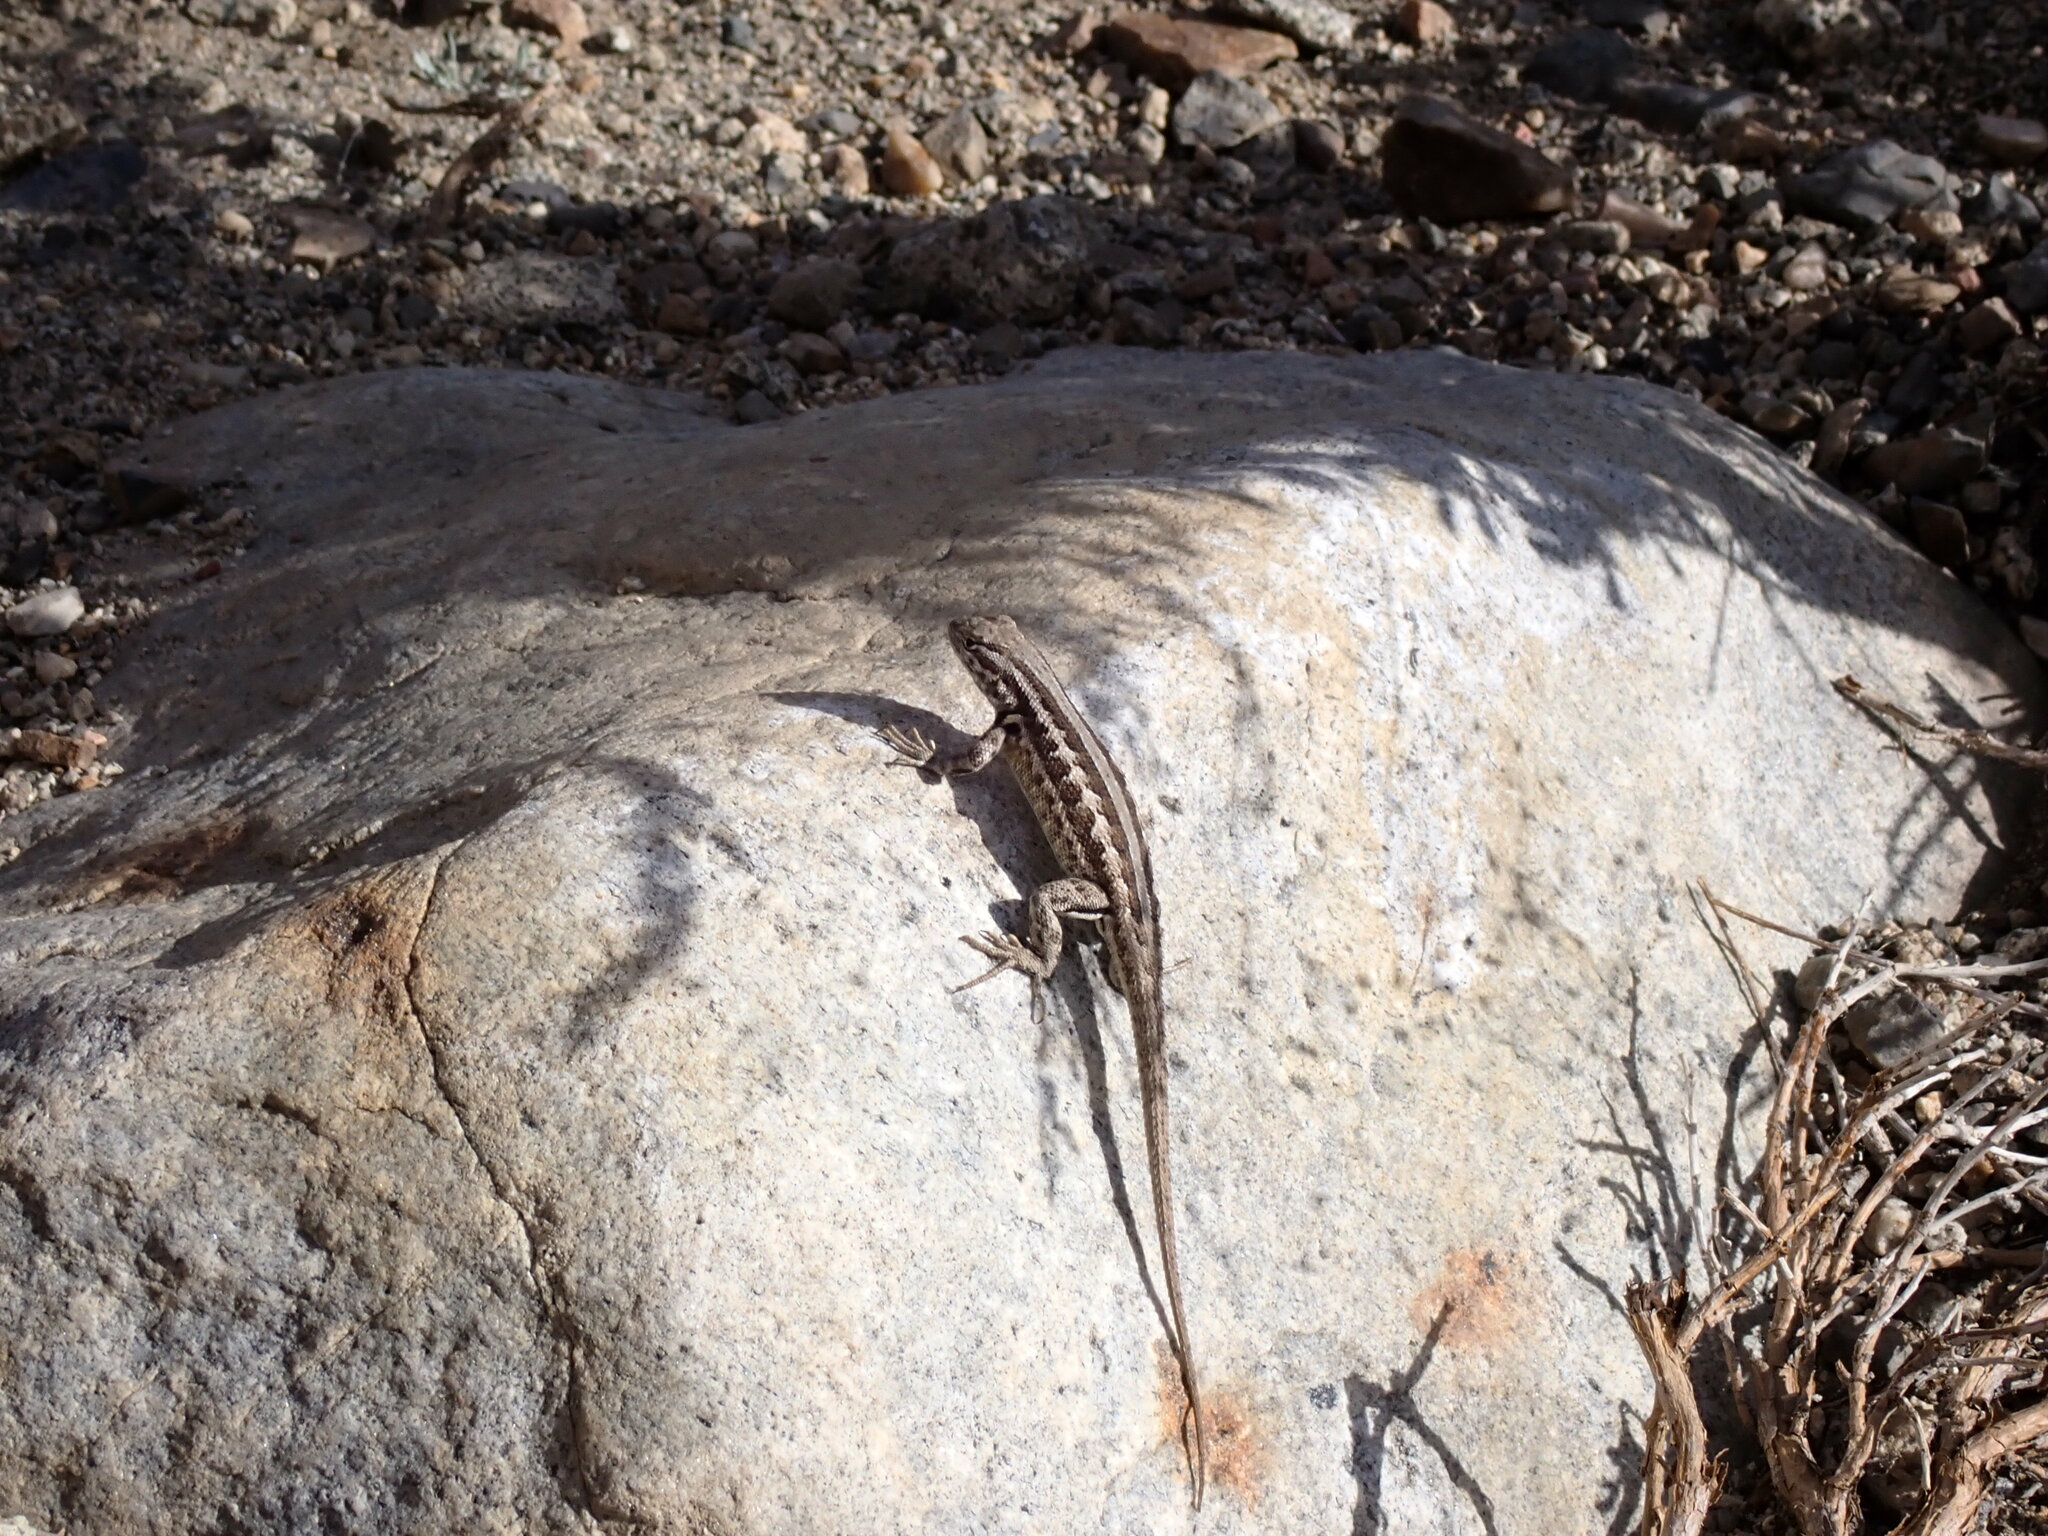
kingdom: Animalia
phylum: Chordata
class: Squamata
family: Phrynosomatidae
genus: Sceloporus
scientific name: Sceloporus graciosus
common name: Sagebrush lizard
